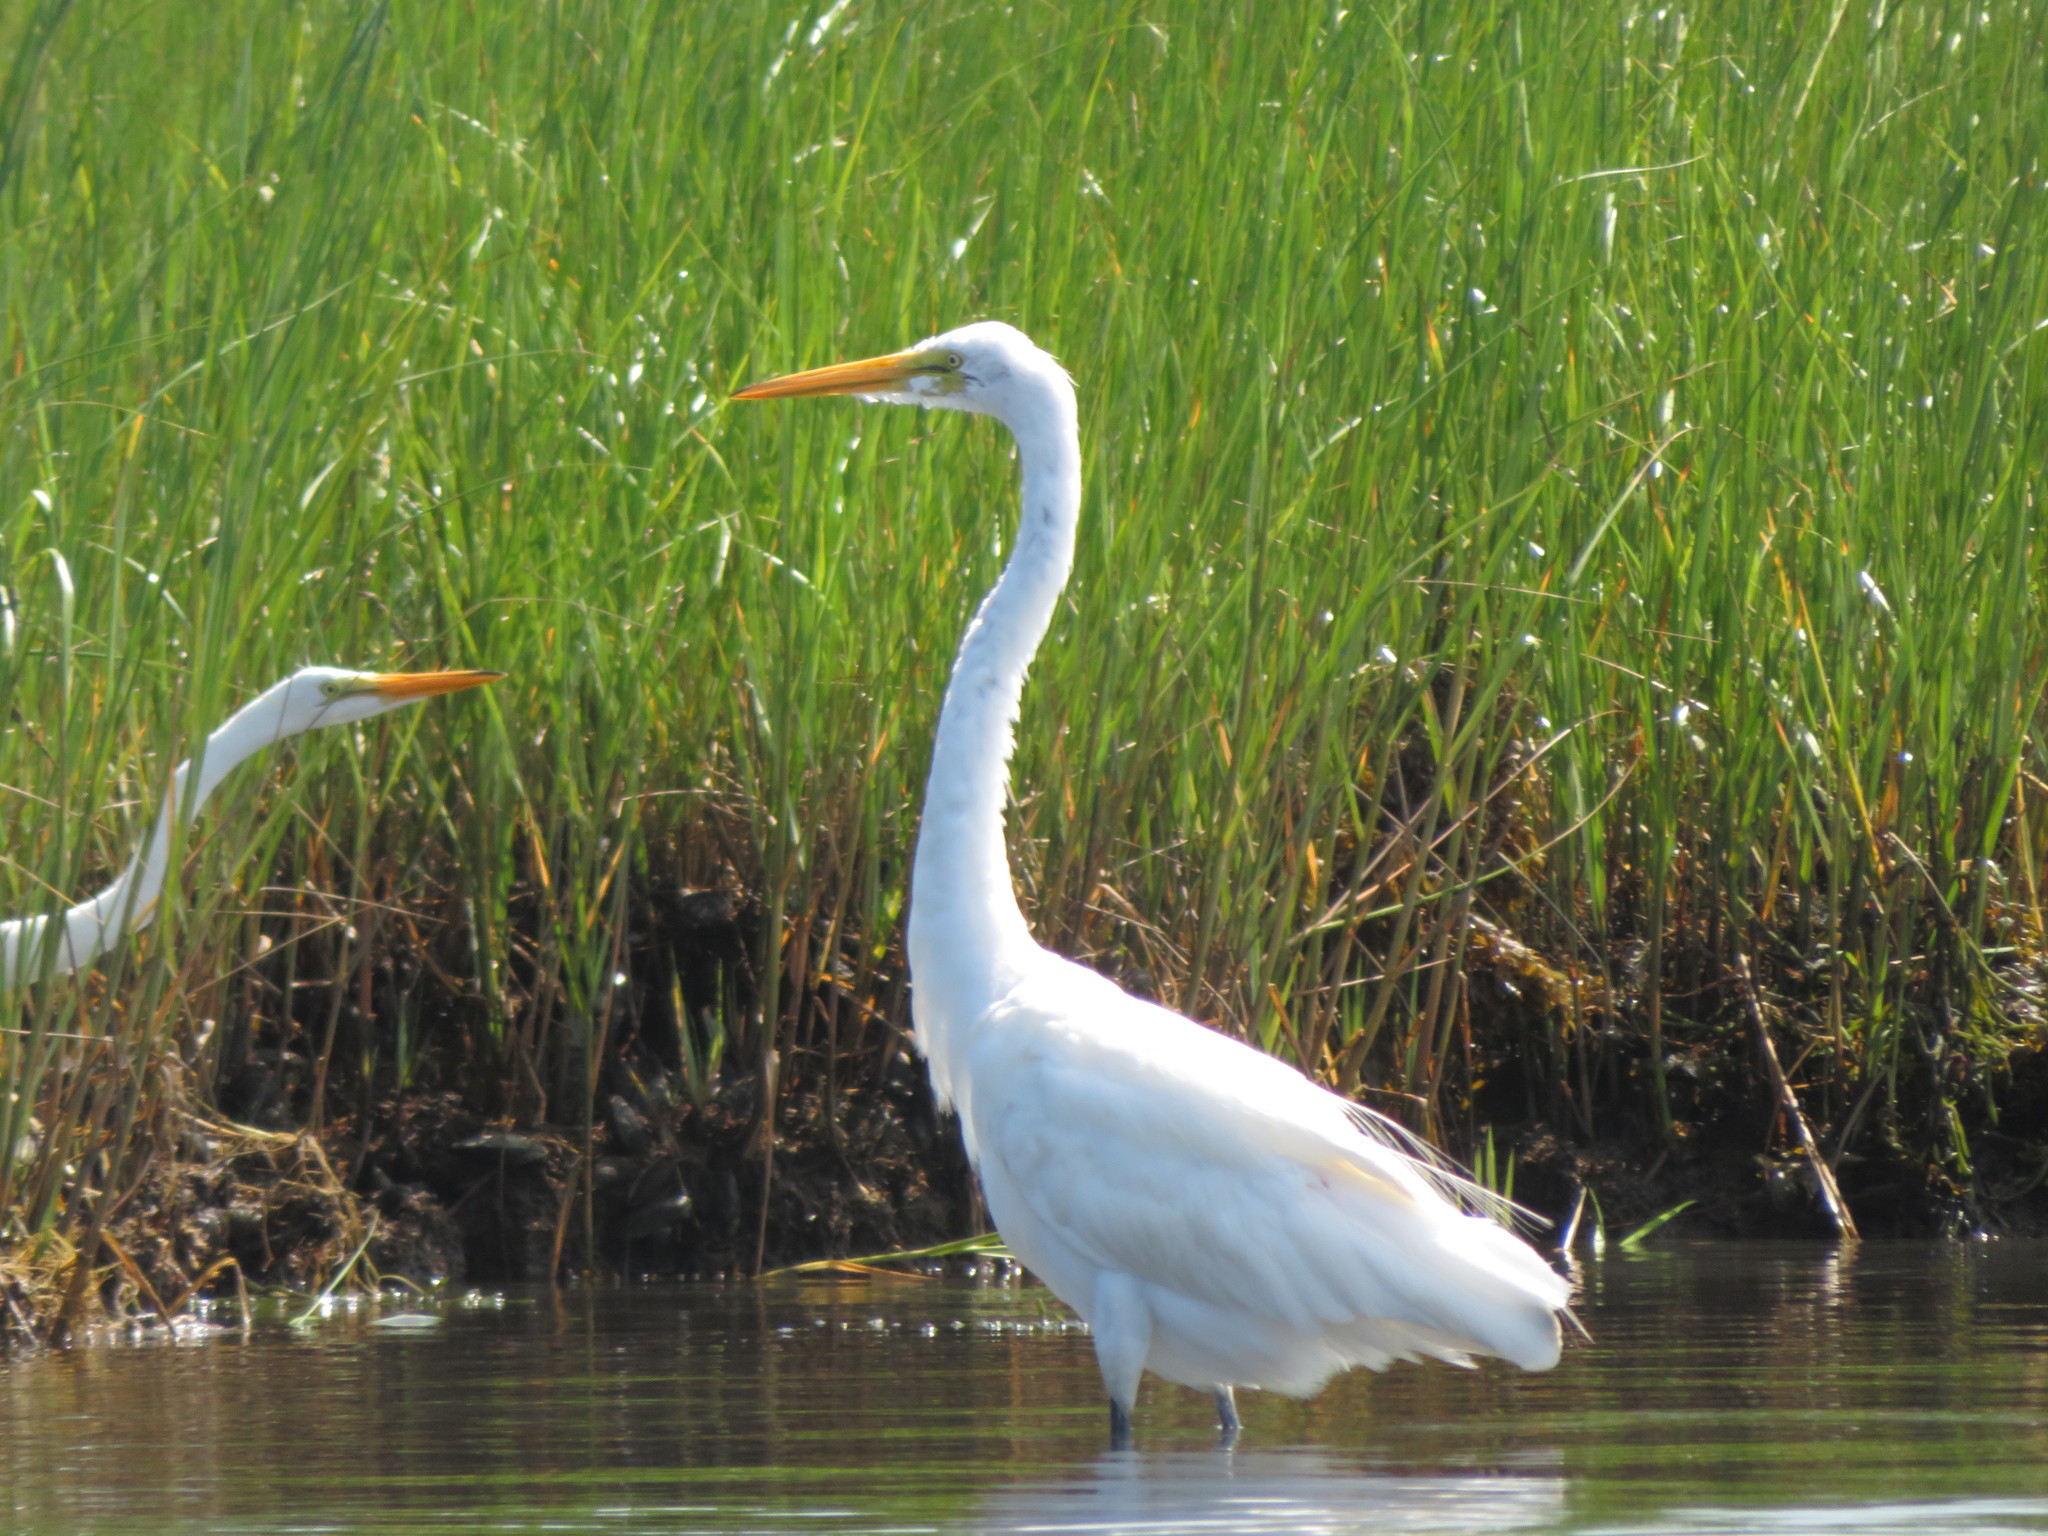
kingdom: Animalia
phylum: Chordata
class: Aves
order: Pelecaniformes
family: Ardeidae
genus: Ardea
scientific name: Ardea alba
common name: Great egret
